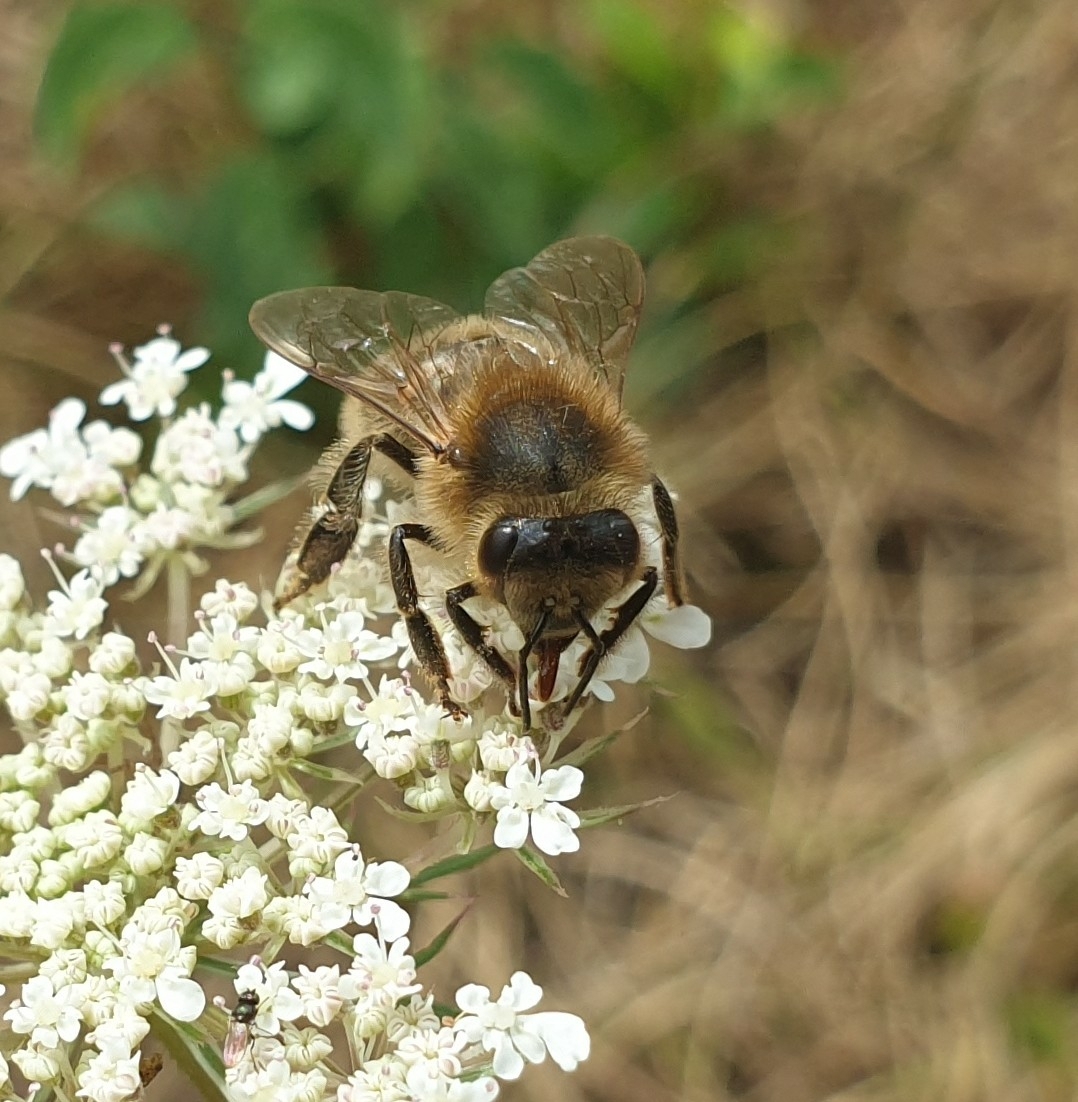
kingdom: Animalia
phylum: Arthropoda
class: Insecta
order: Hymenoptera
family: Apidae
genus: Apis
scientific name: Apis mellifera
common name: Honey bee
